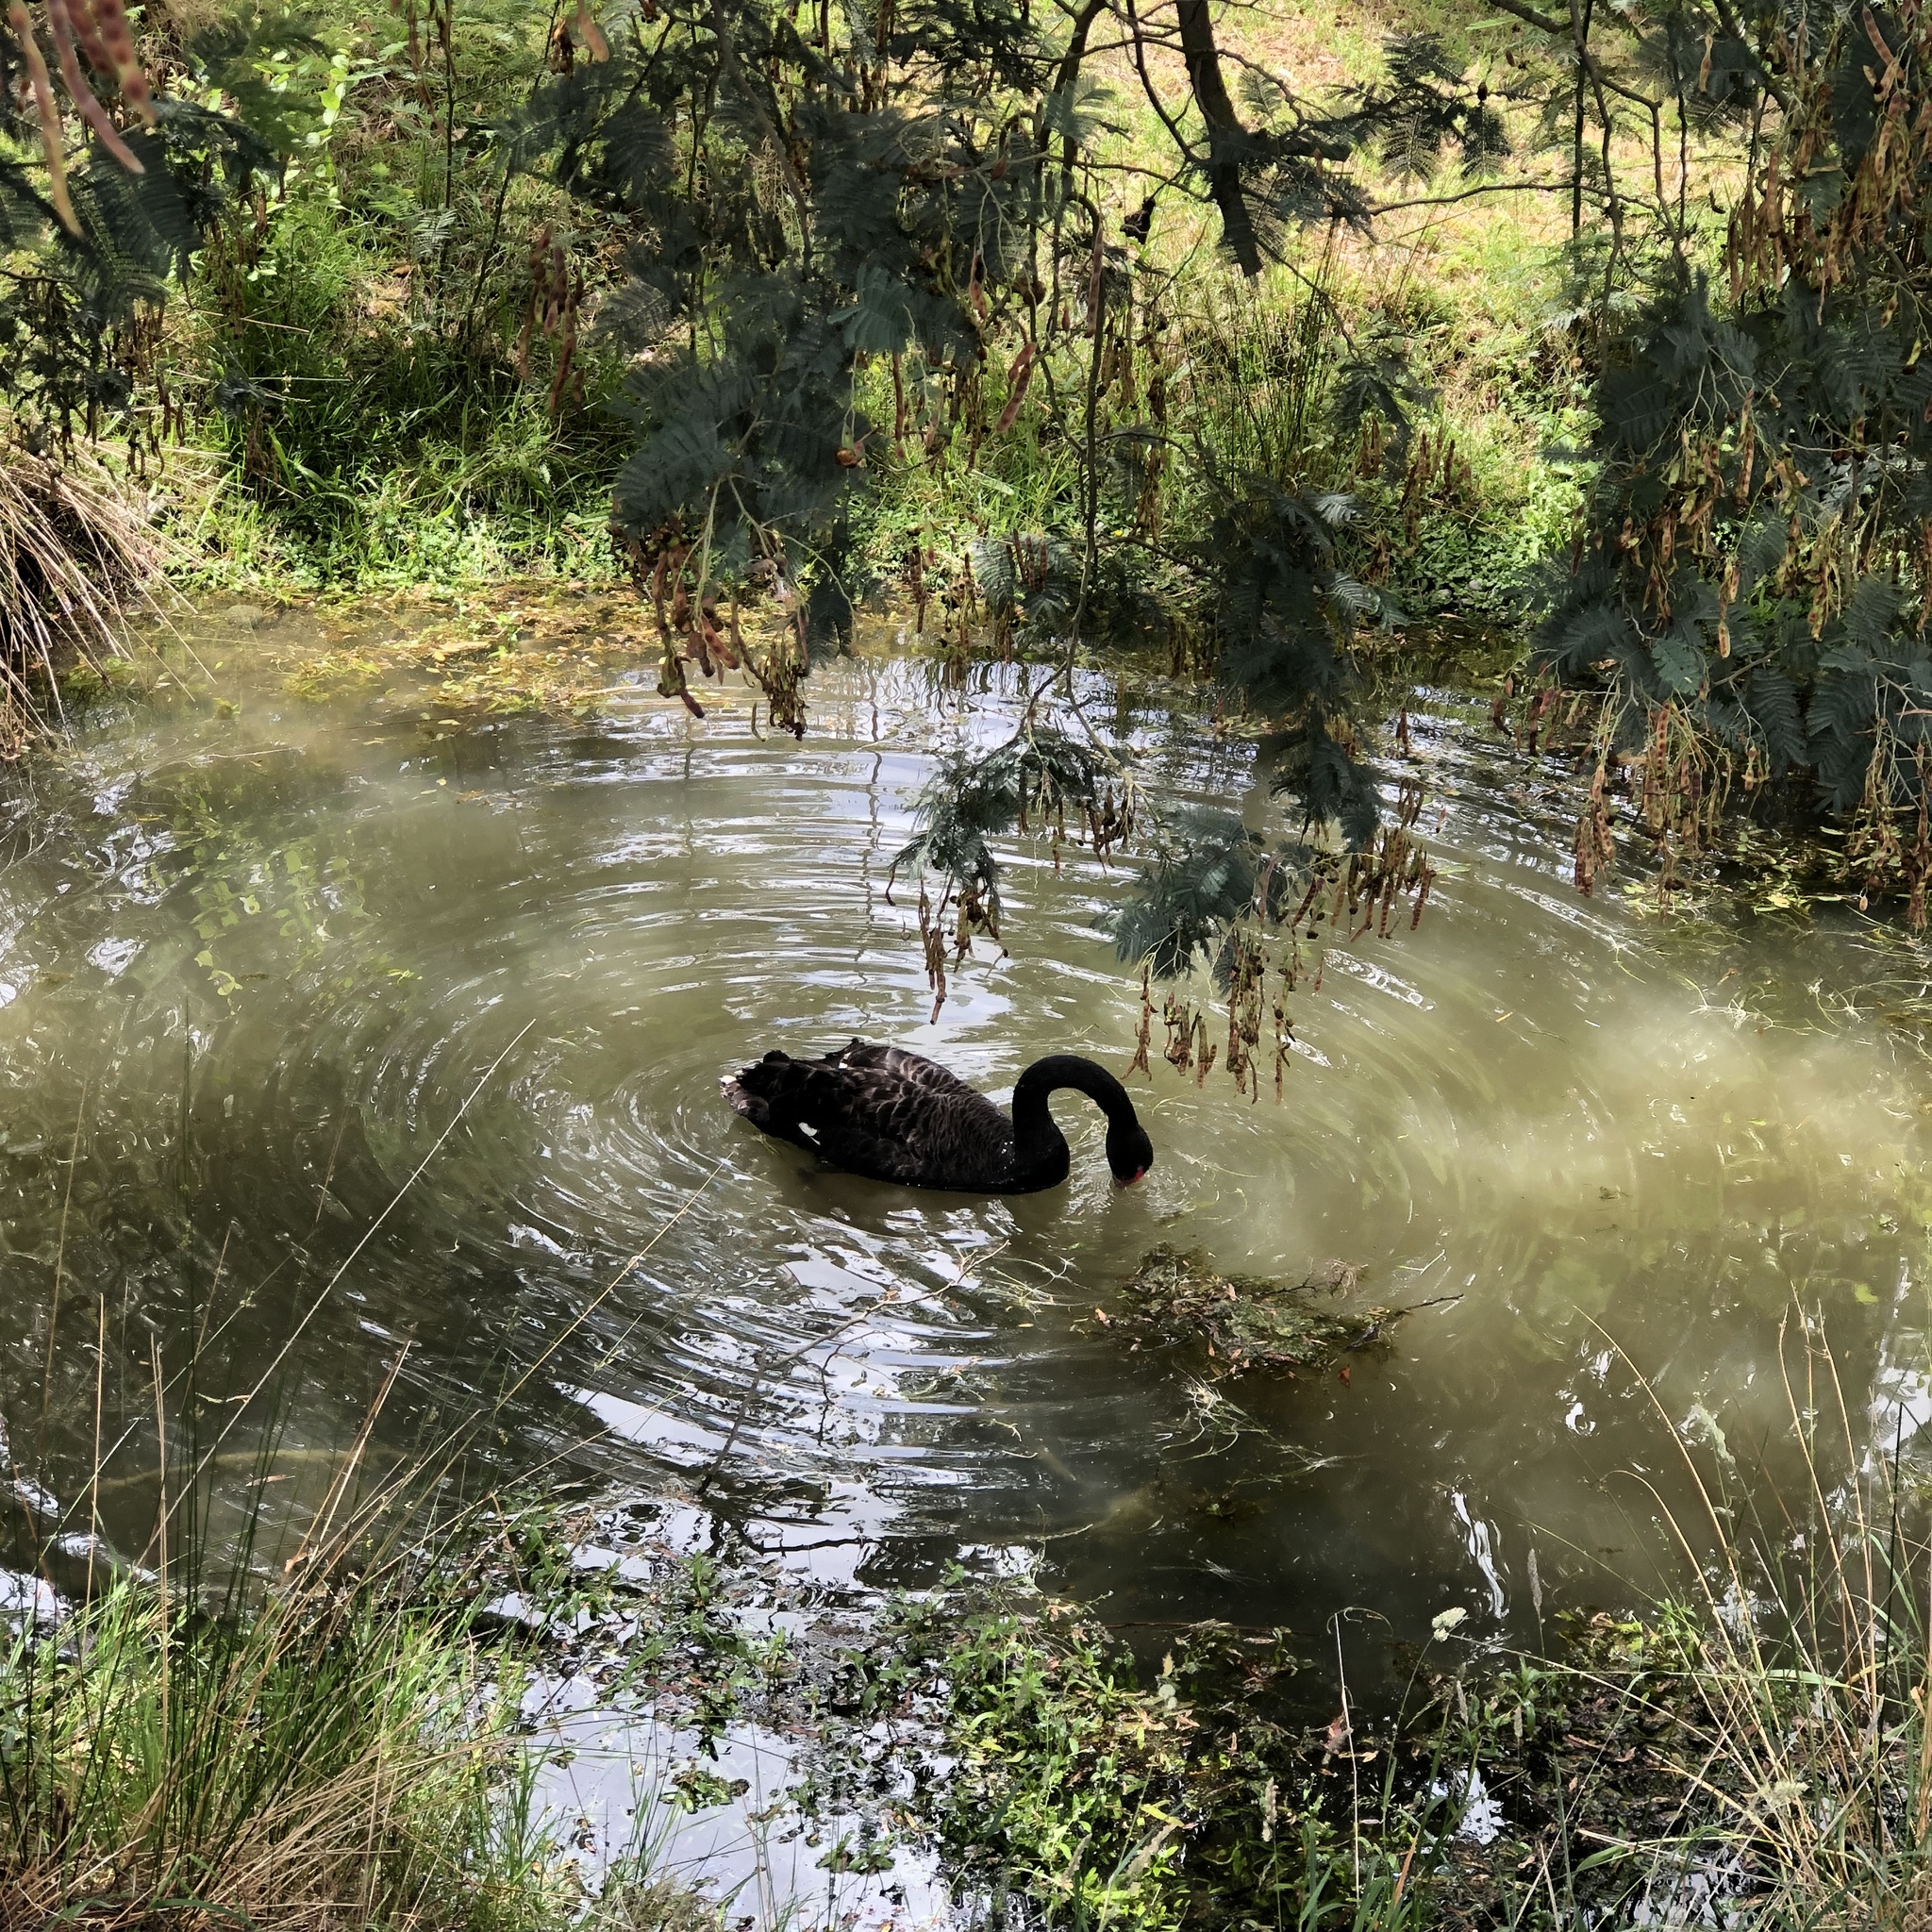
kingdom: Animalia
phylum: Chordata
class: Aves
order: Anseriformes
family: Anatidae
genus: Cygnus
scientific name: Cygnus atratus
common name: Black swan
